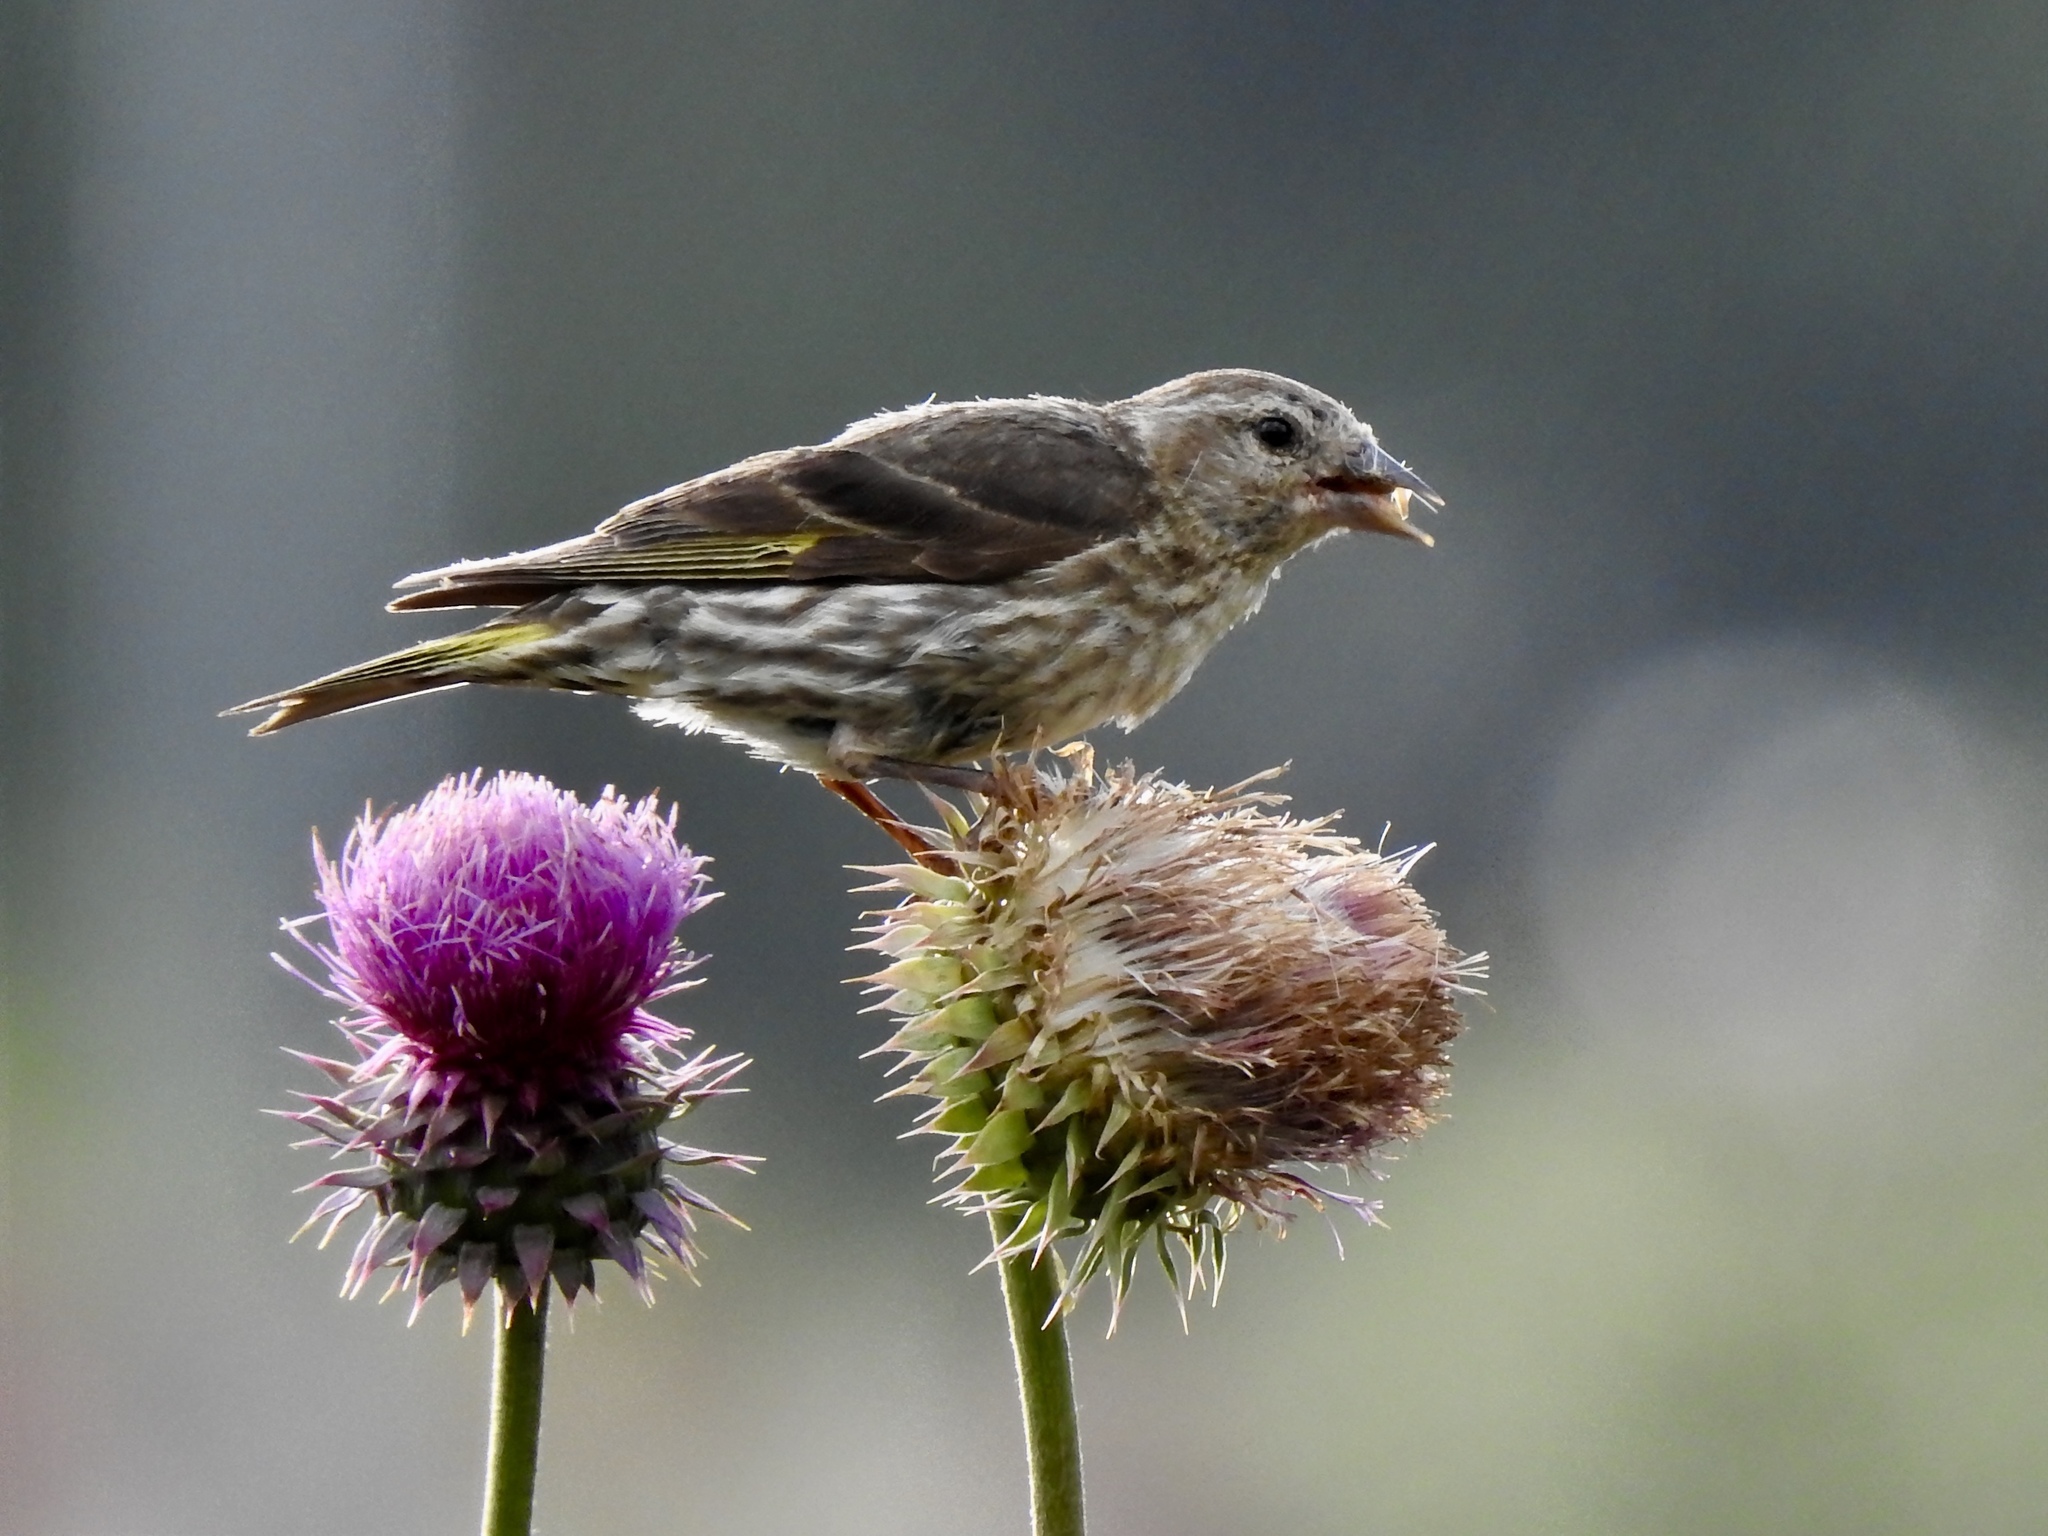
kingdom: Animalia
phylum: Chordata
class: Aves
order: Passeriformes
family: Fringillidae
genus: Spinus
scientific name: Spinus pinus
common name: Pine siskin
